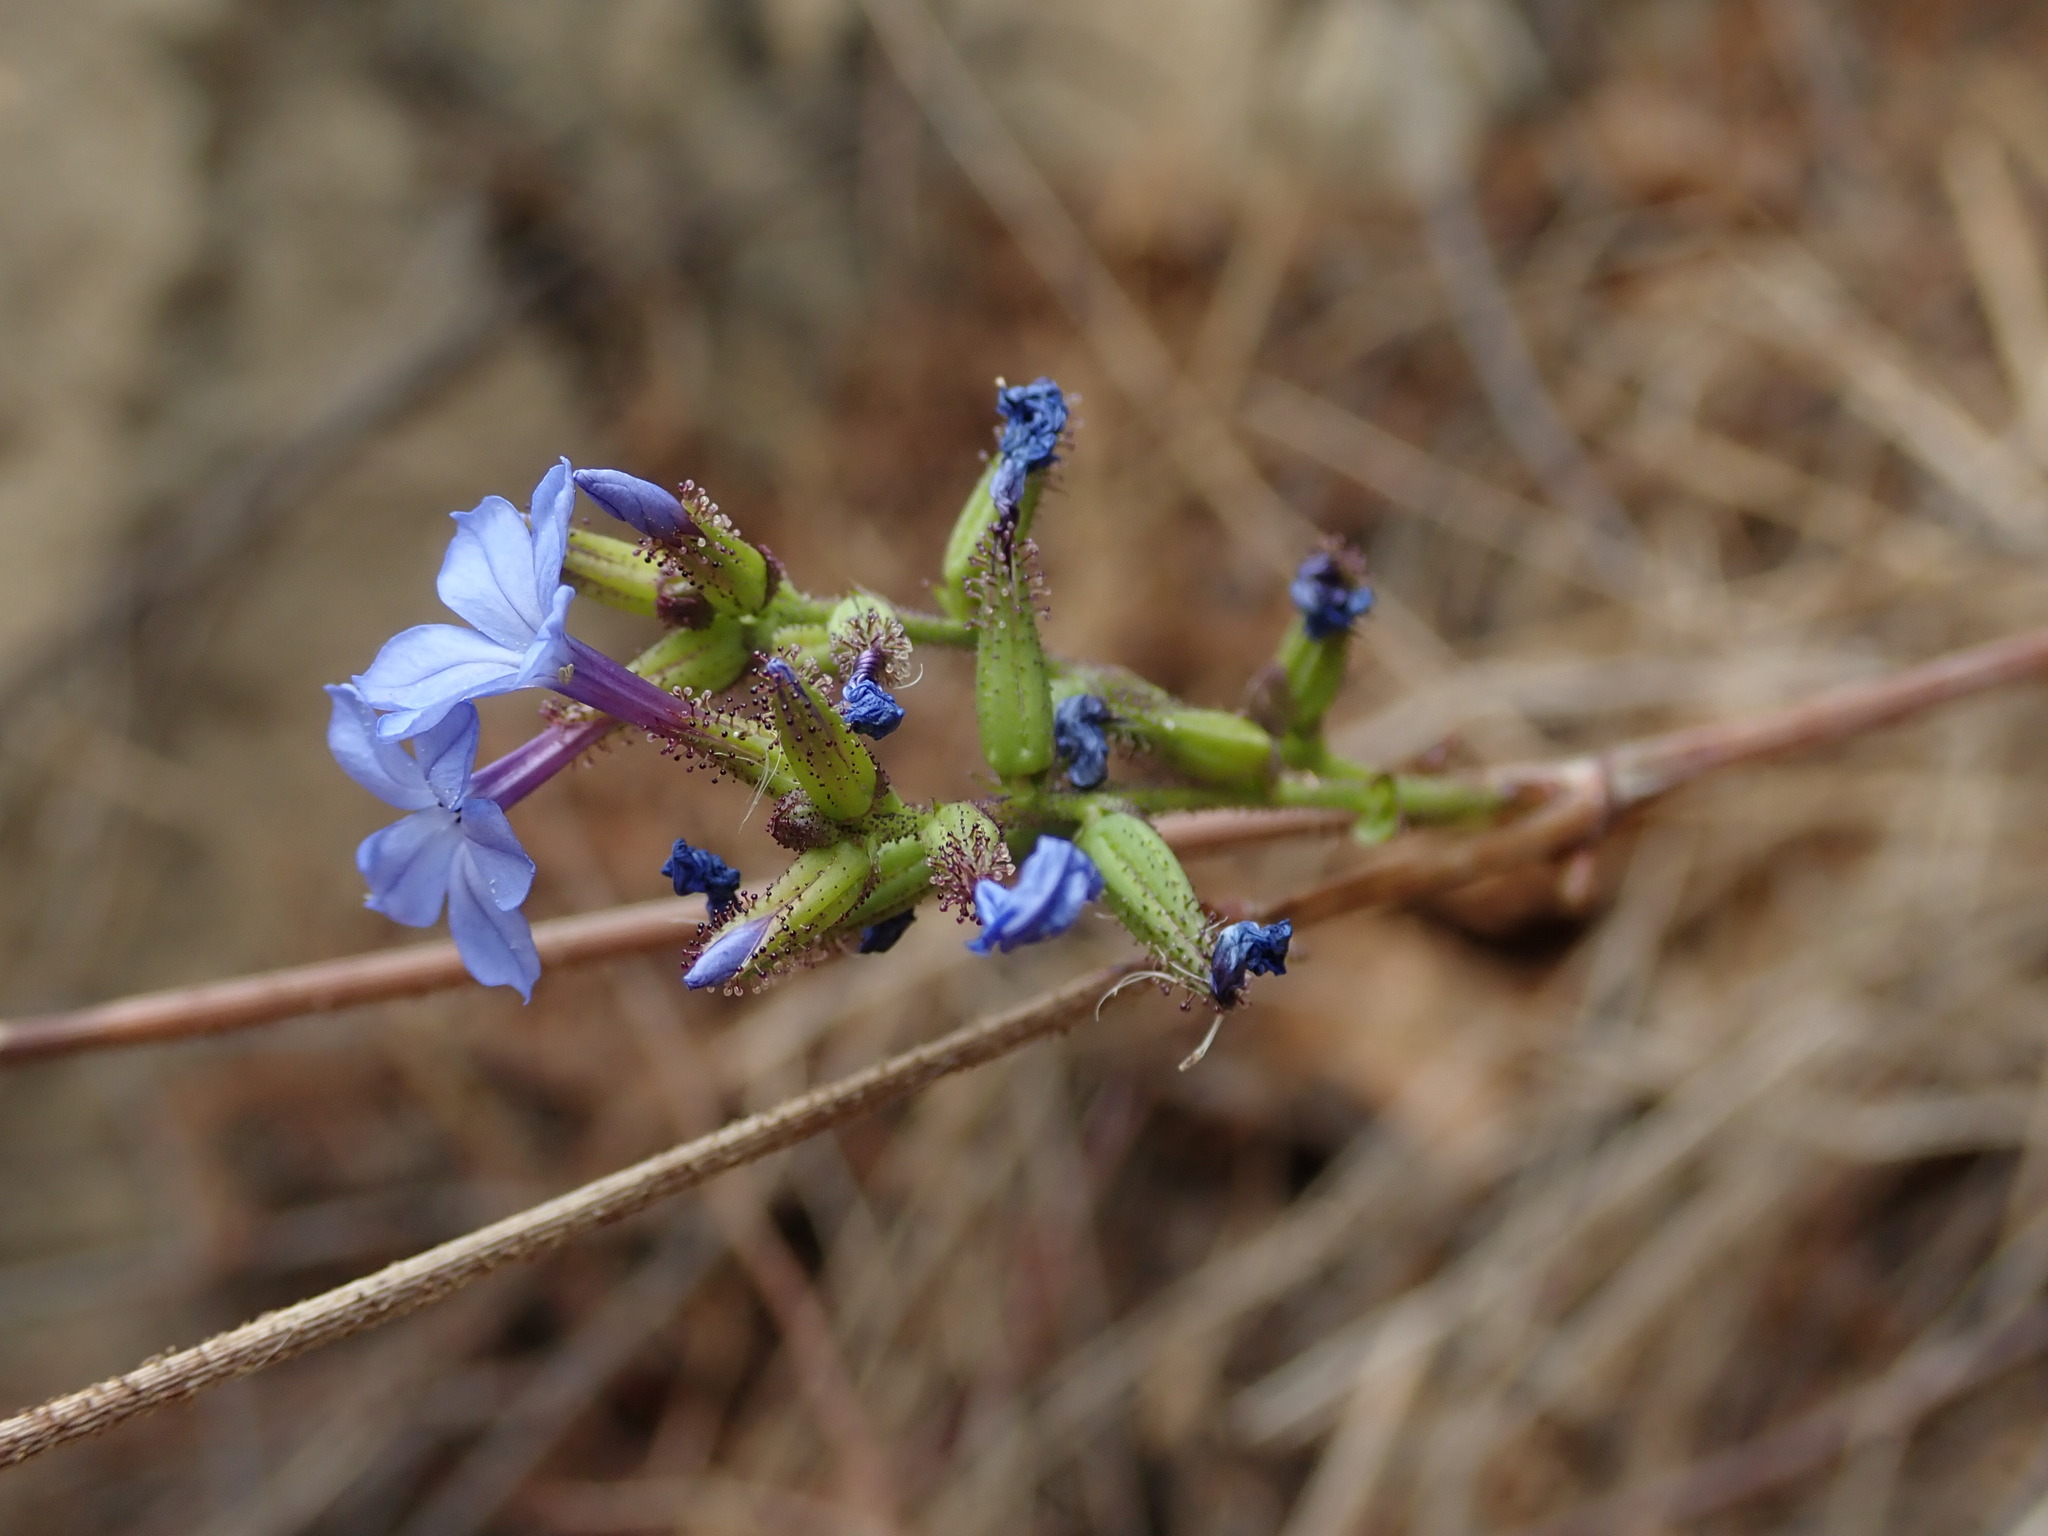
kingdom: Plantae
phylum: Tracheophyta
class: Magnoliopsida
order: Caryophyllales
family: Plumbaginaceae
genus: Plumbago
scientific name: Plumbago caerulea
